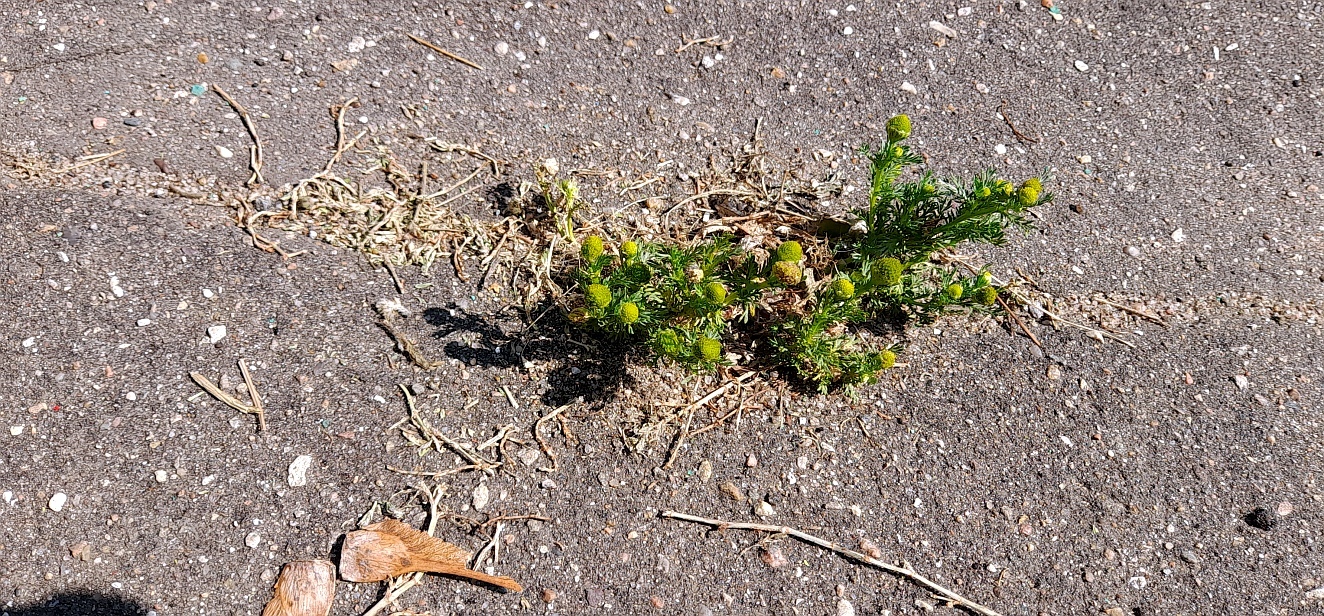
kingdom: Plantae
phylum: Tracheophyta
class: Magnoliopsida
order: Asterales
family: Asteraceae
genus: Matricaria
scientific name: Matricaria discoidea
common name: Disc mayweed
